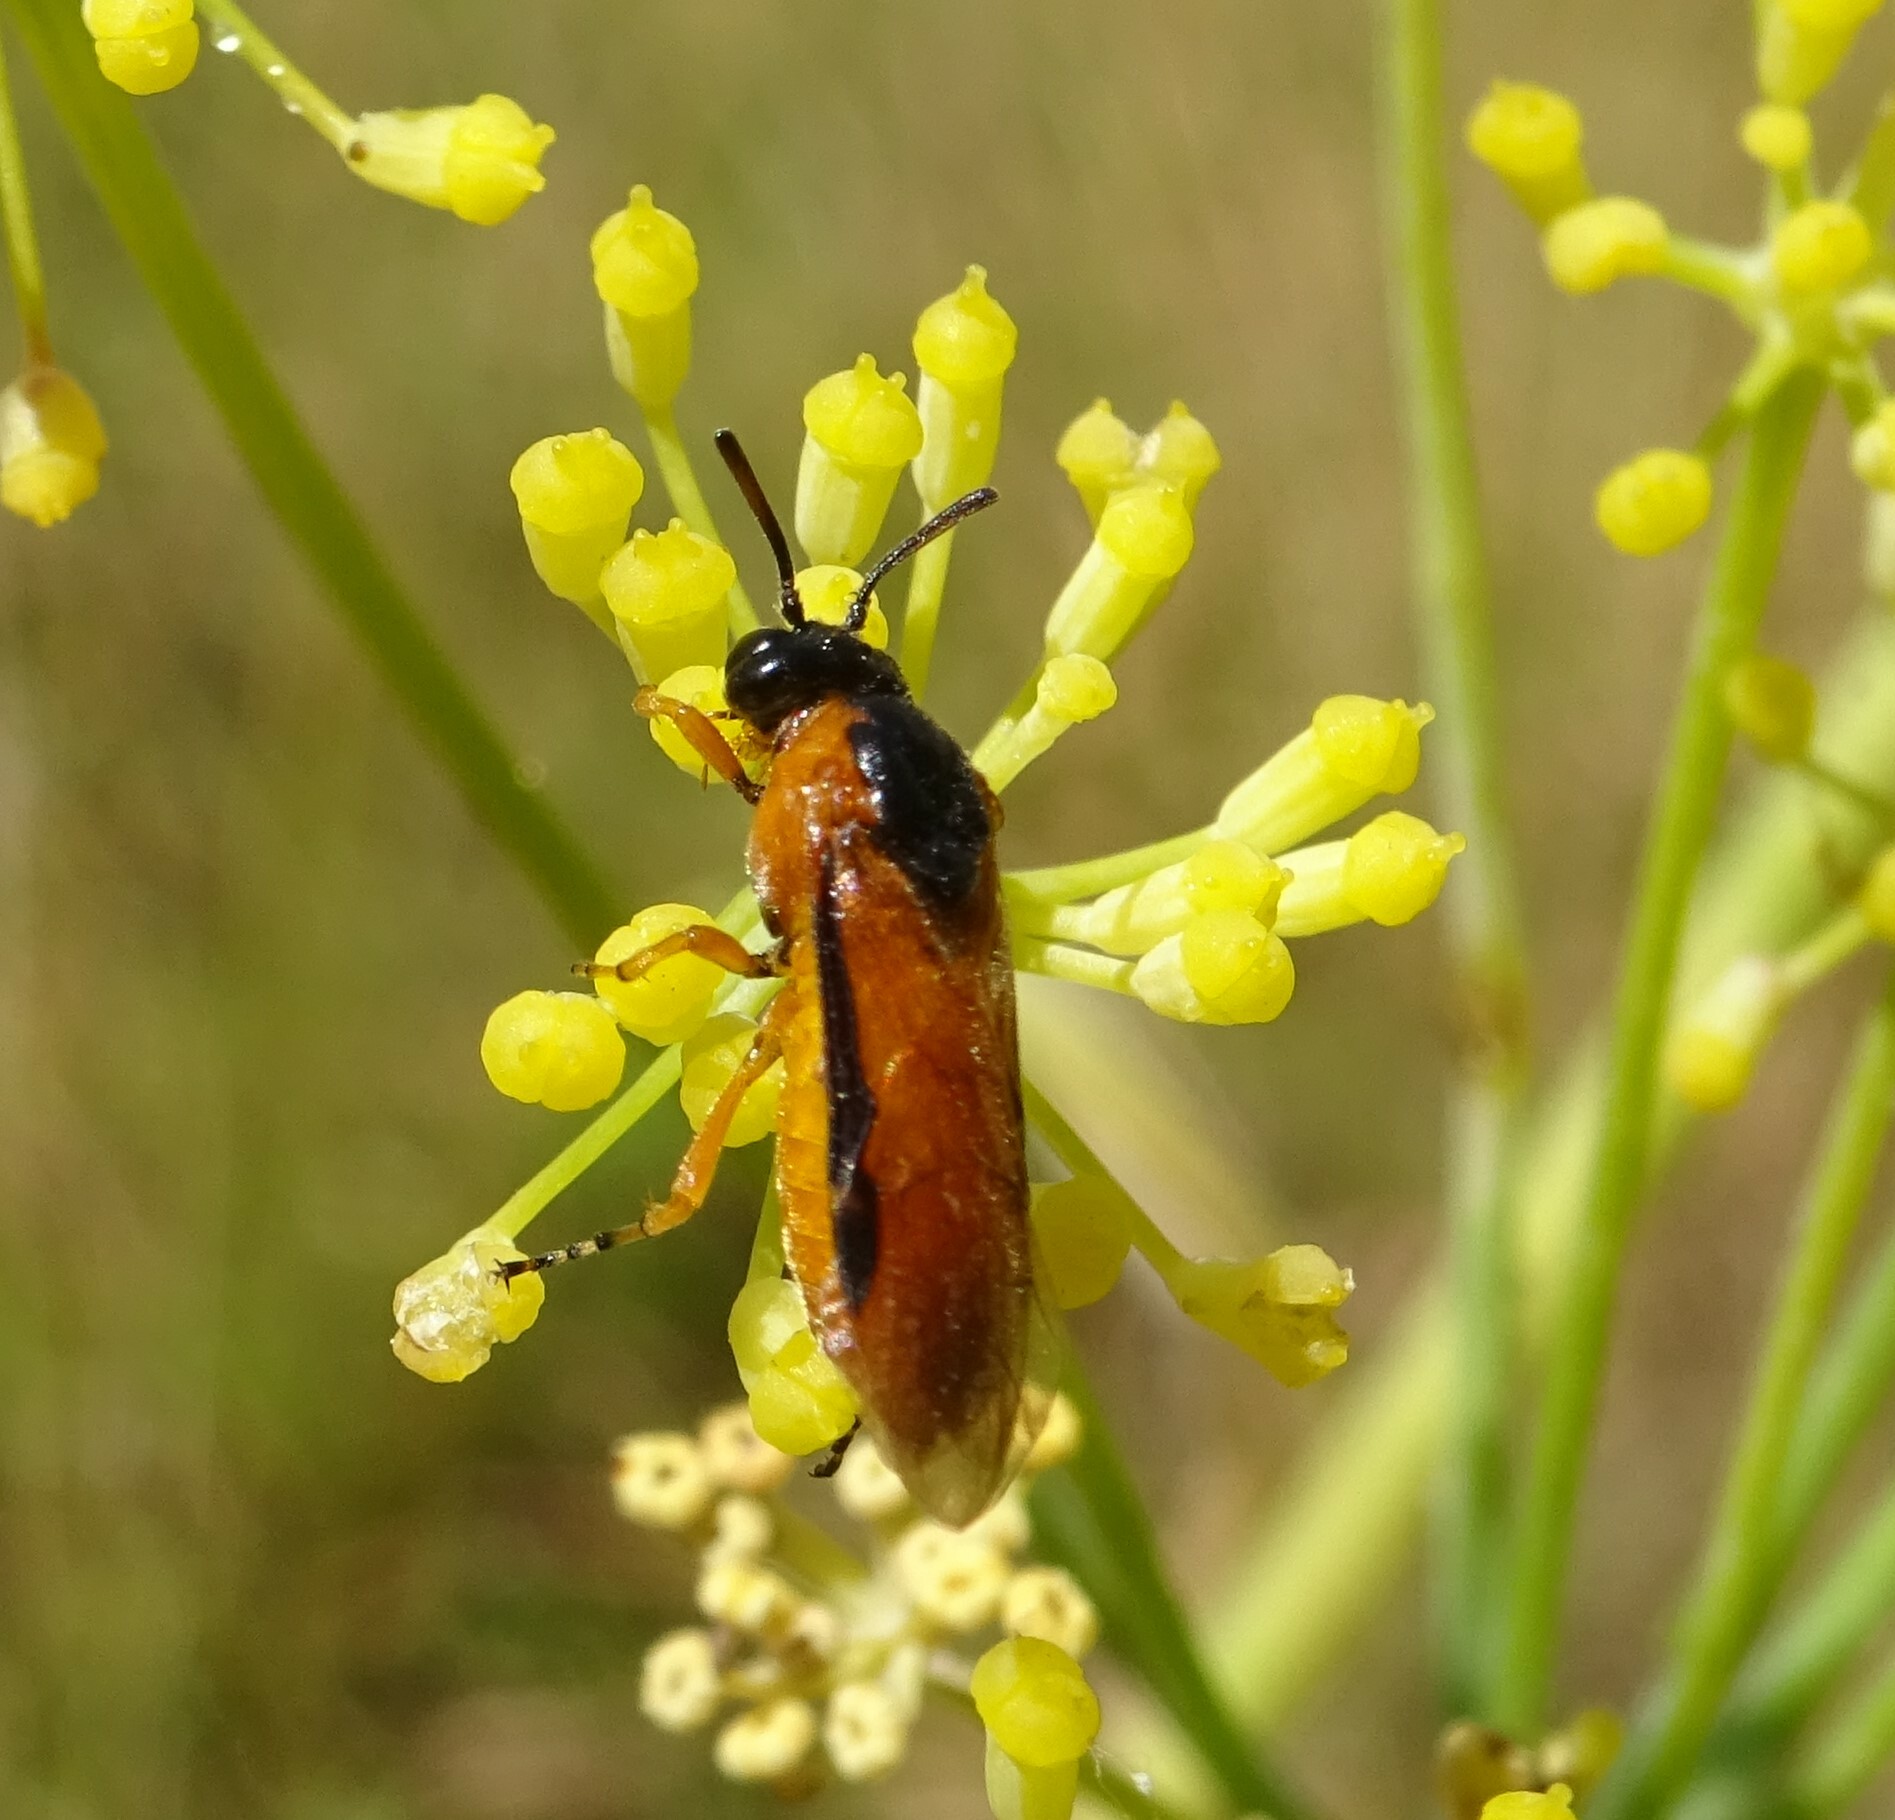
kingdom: Animalia
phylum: Arthropoda
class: Insecta
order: Hymenoptera
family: Argidae
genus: Arge
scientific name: Arge ochropus
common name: Argid sawfly
